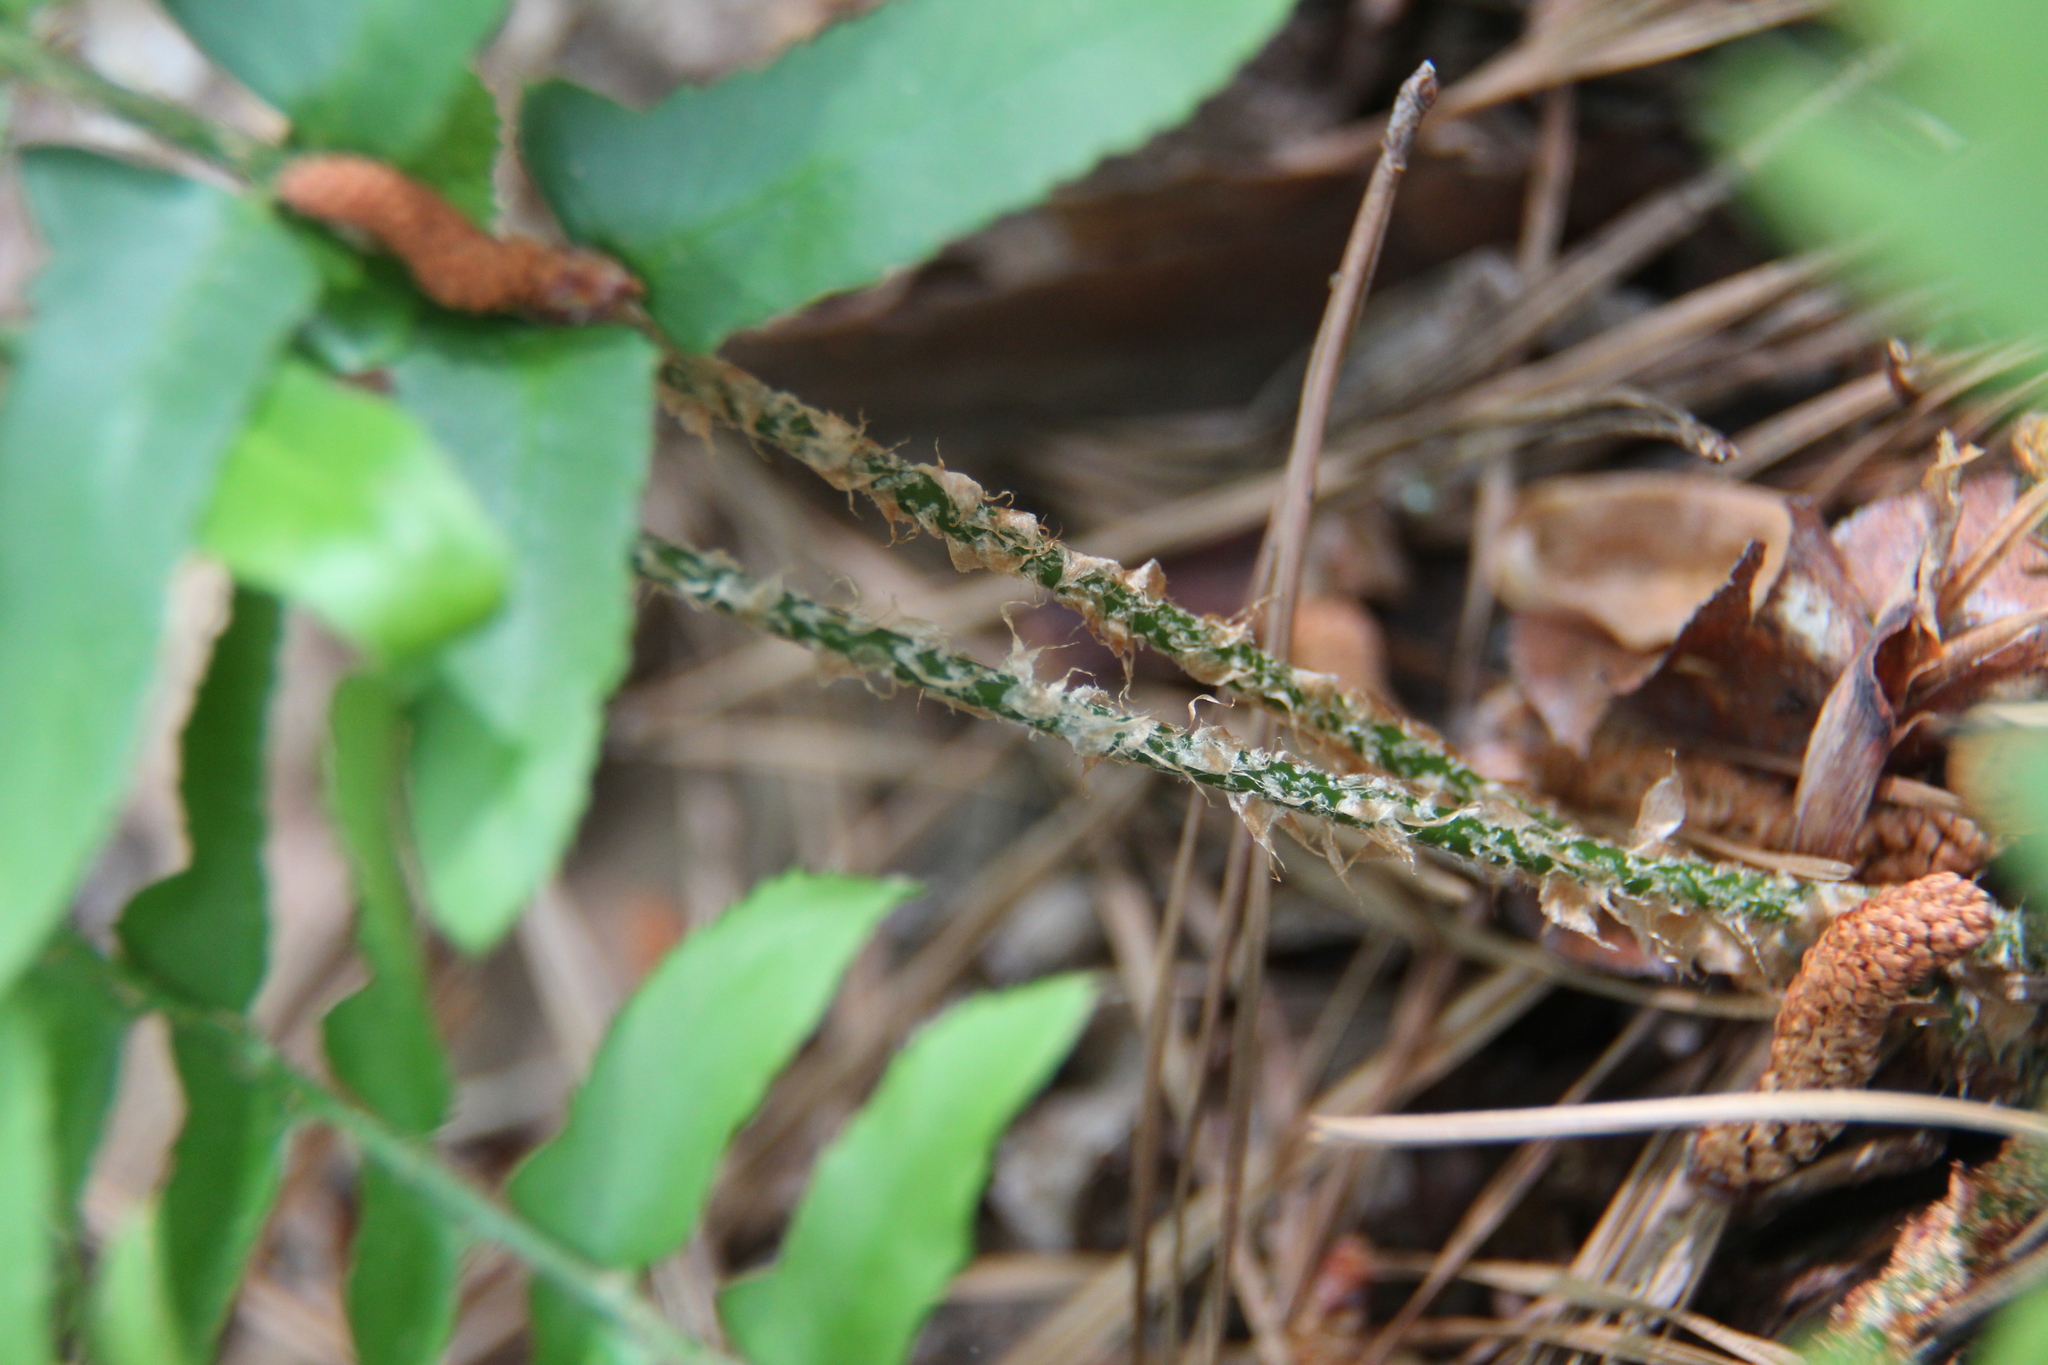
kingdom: Plantae
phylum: Tracheophyta
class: Polypodiopsida
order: Polypodiales
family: Dryopteridaceae
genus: Polystichum
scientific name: Polystichum acrostichoides
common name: Christmas fern
